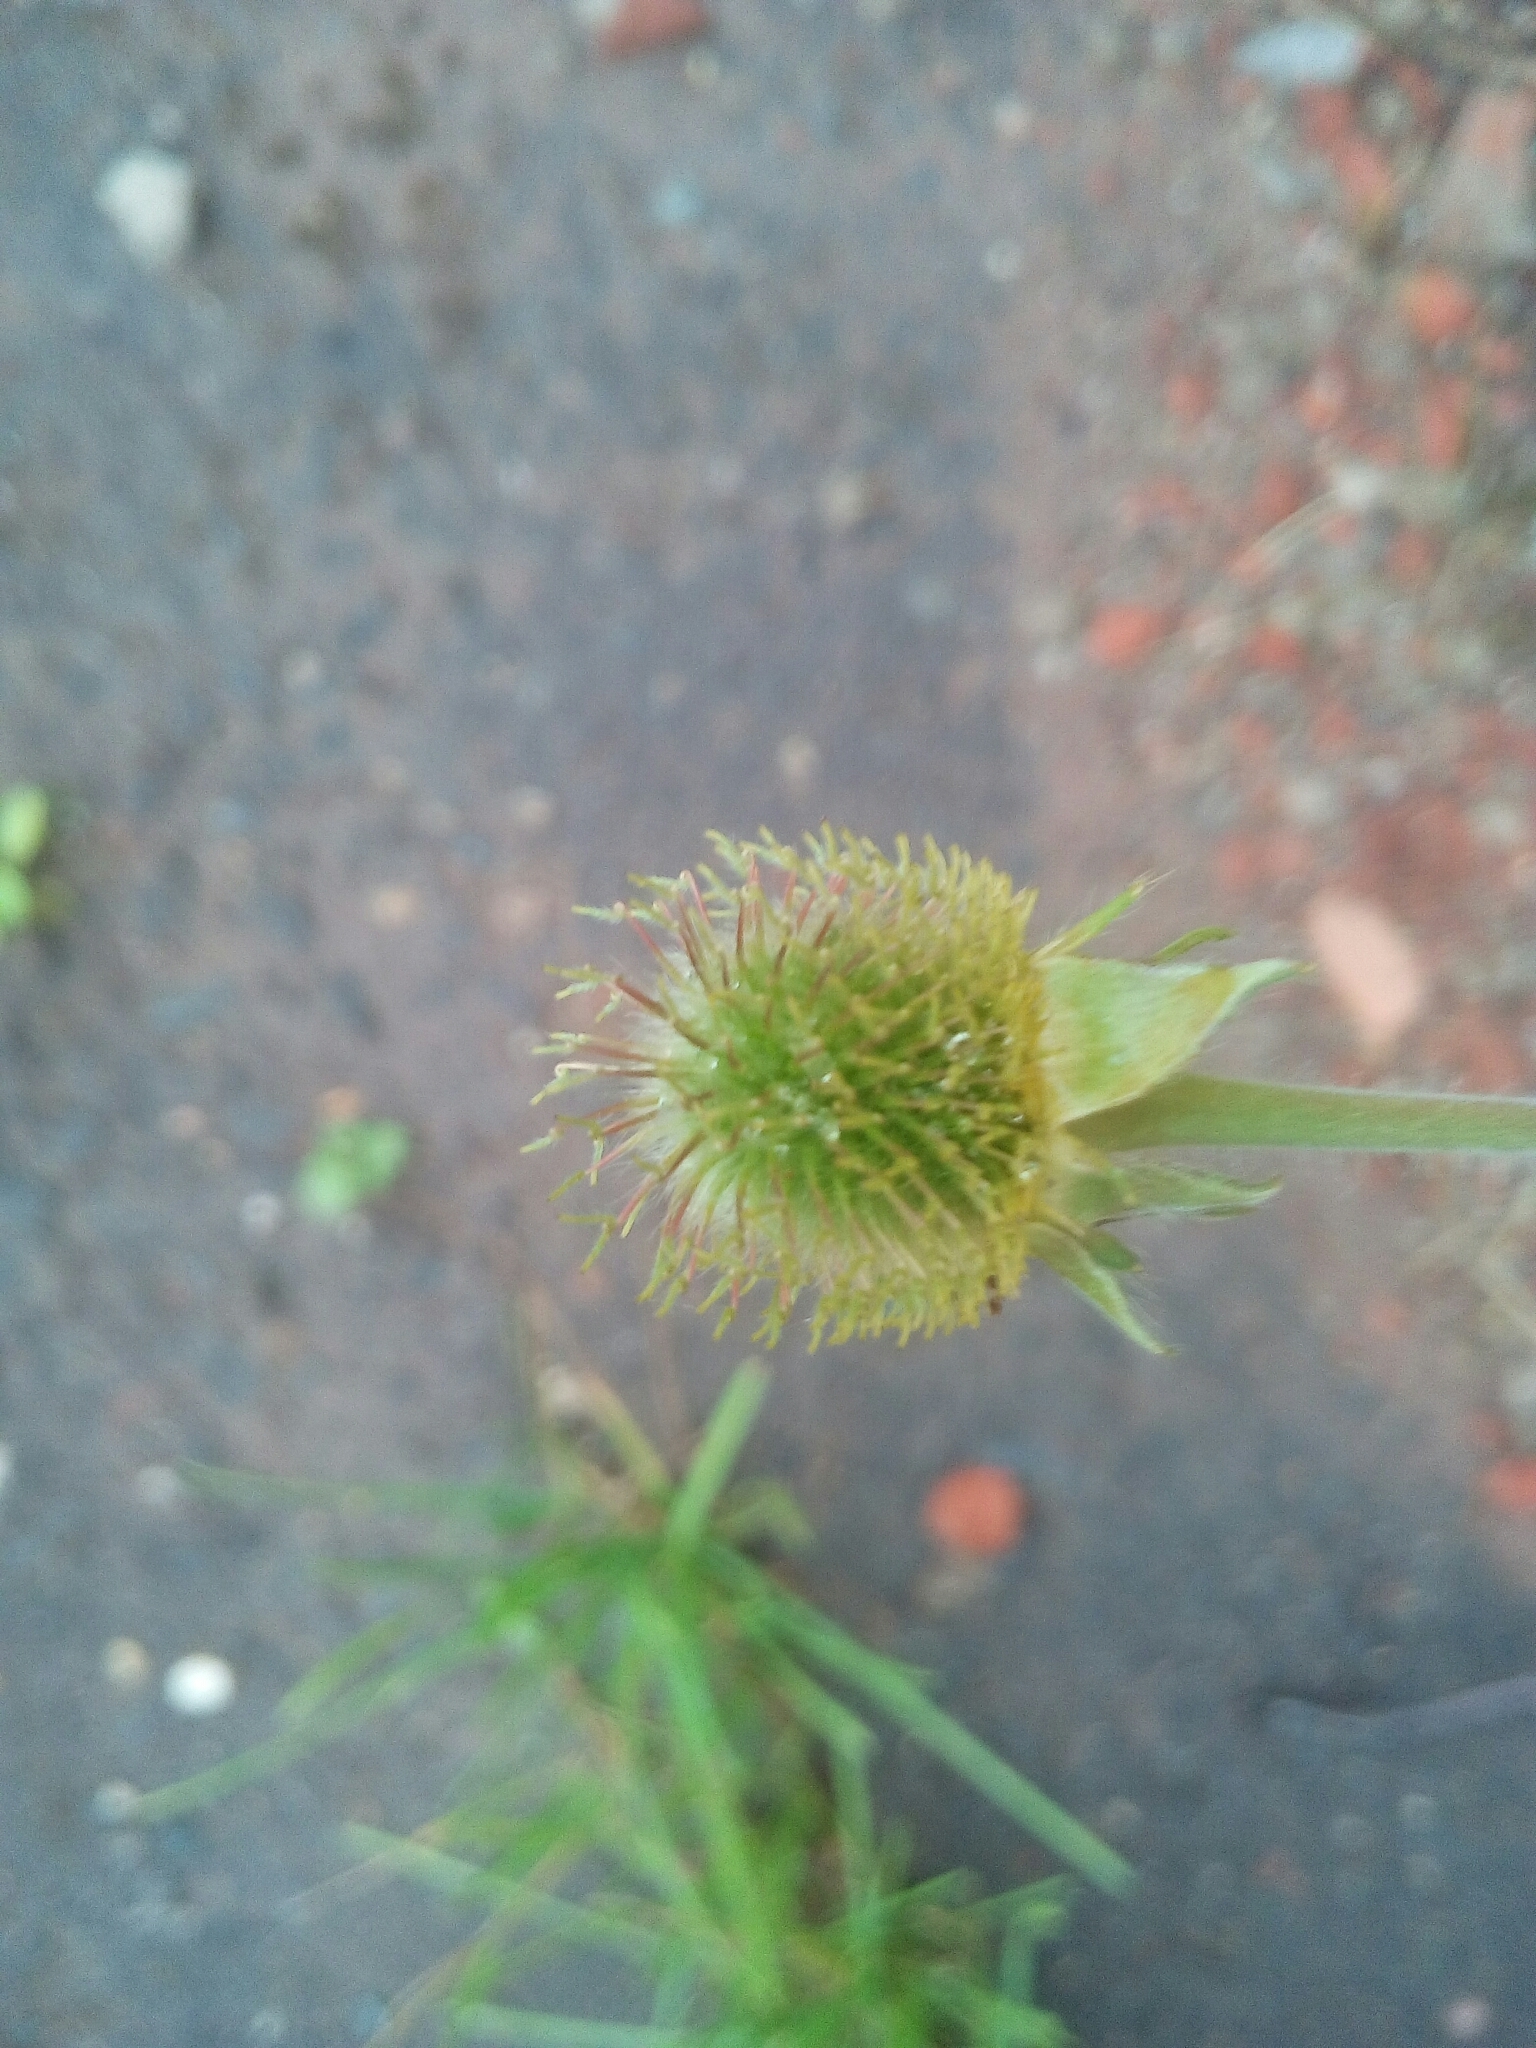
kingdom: Plantae
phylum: Tracheophyta
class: Magnoliopsida
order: Rosales
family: Rosaceae
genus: Geum
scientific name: Geum aleppicum
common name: Yellow avens
